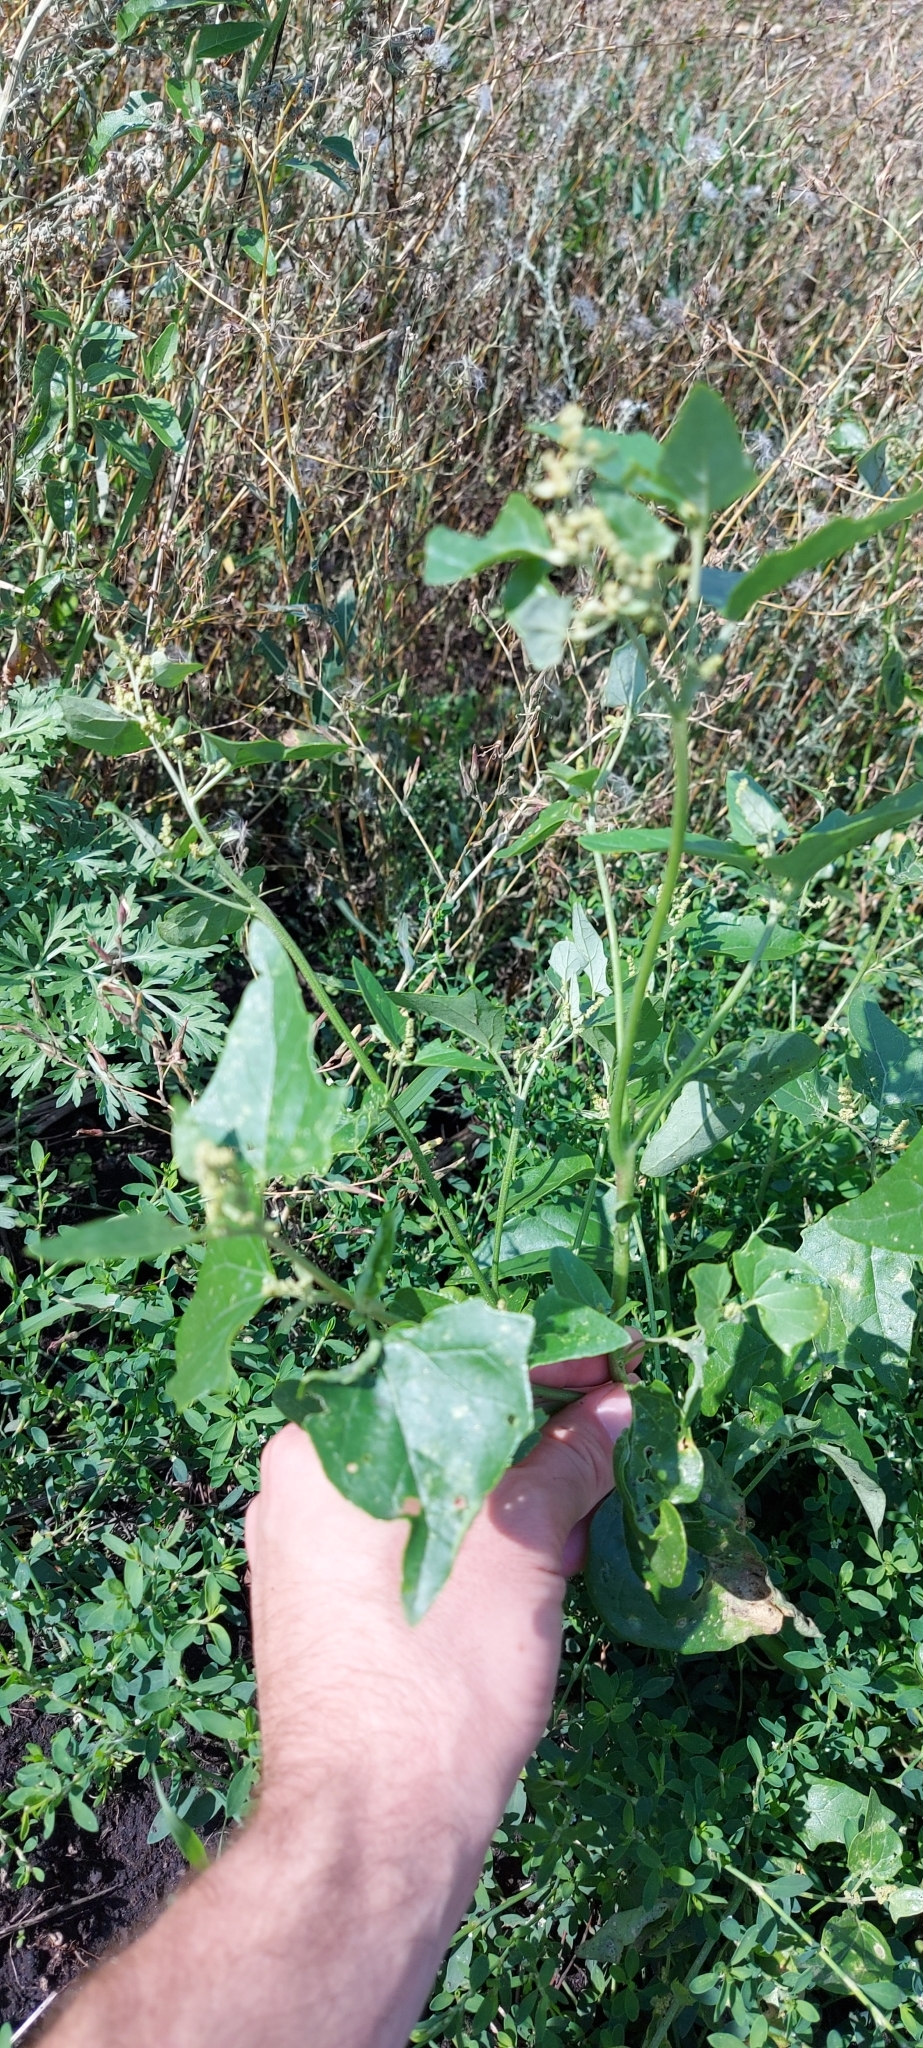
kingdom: Plantae
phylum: Tracheophyta
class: Magnoliopsida
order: Caryophyllales
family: Amaranthaceae
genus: Atriplex
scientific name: Atriplex sagittata
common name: Purple orache
